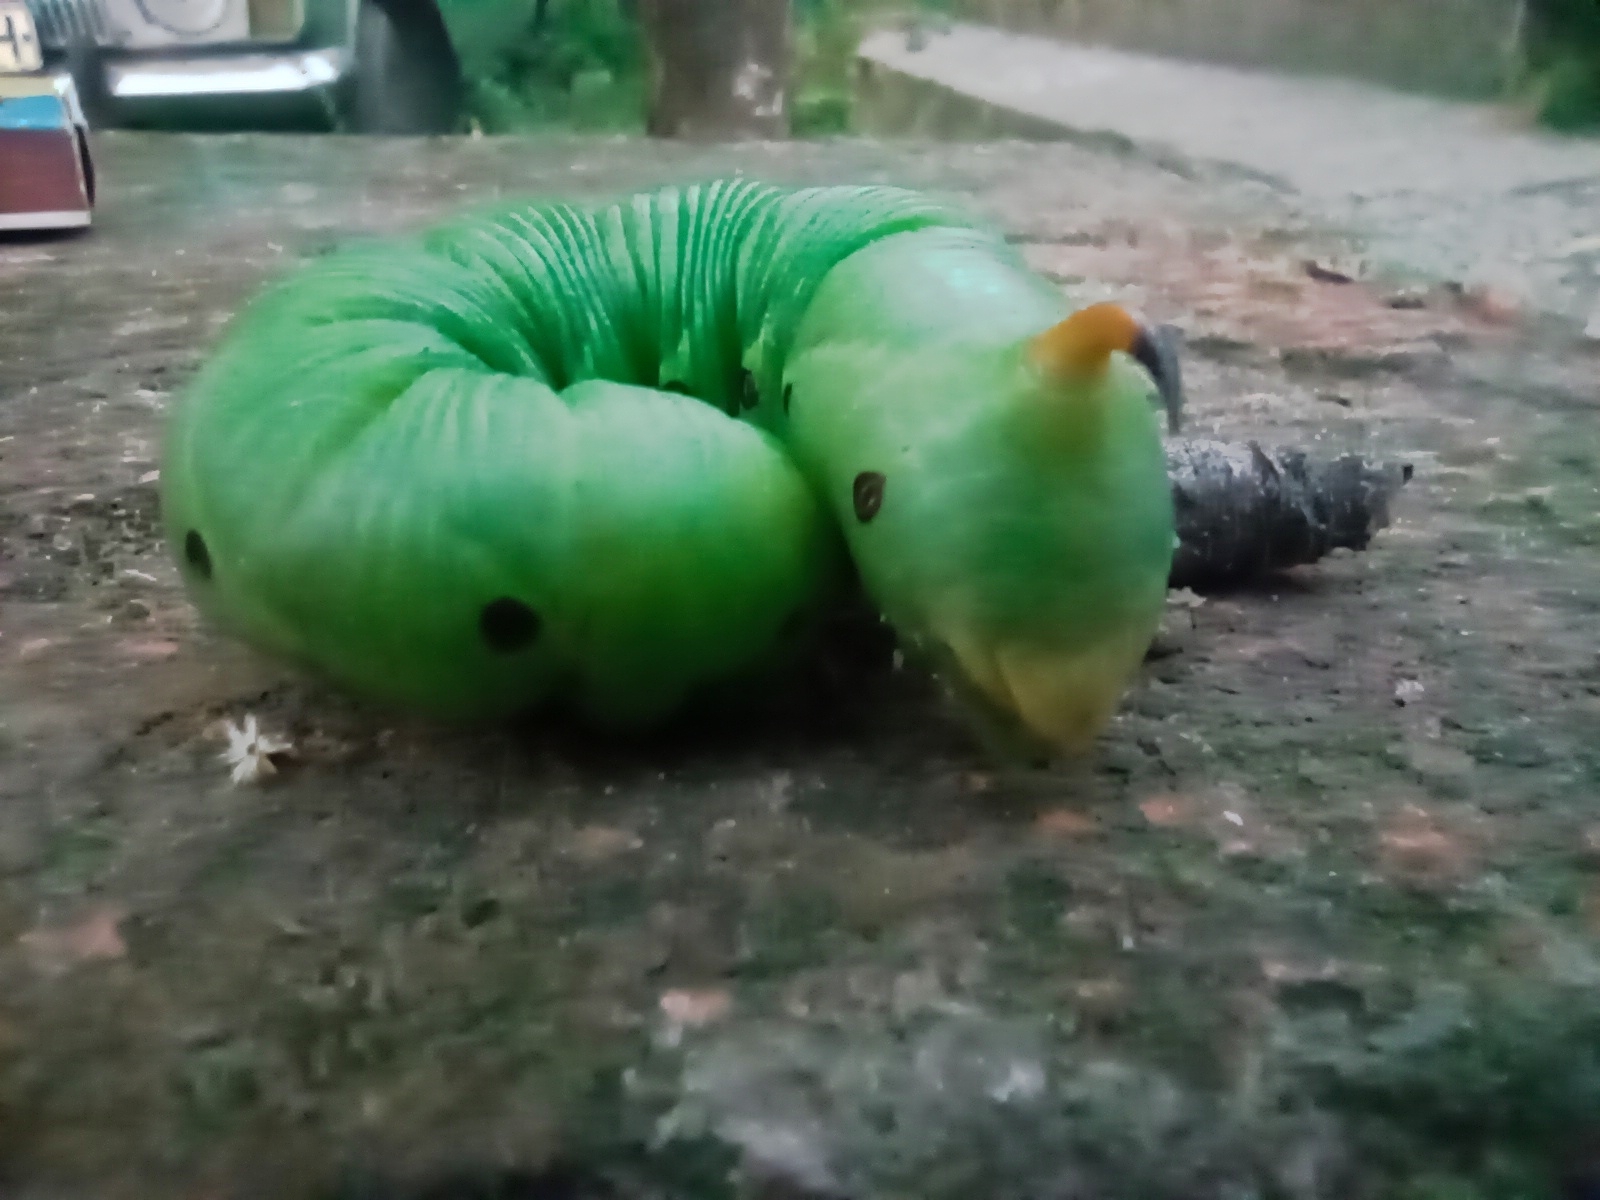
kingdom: Animalia
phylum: Arthropoda
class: Insecta
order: Lepidoptera
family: Sphingidae
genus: Agrius
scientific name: Agrius convolvuli
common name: Convolvulus hawkmoth
